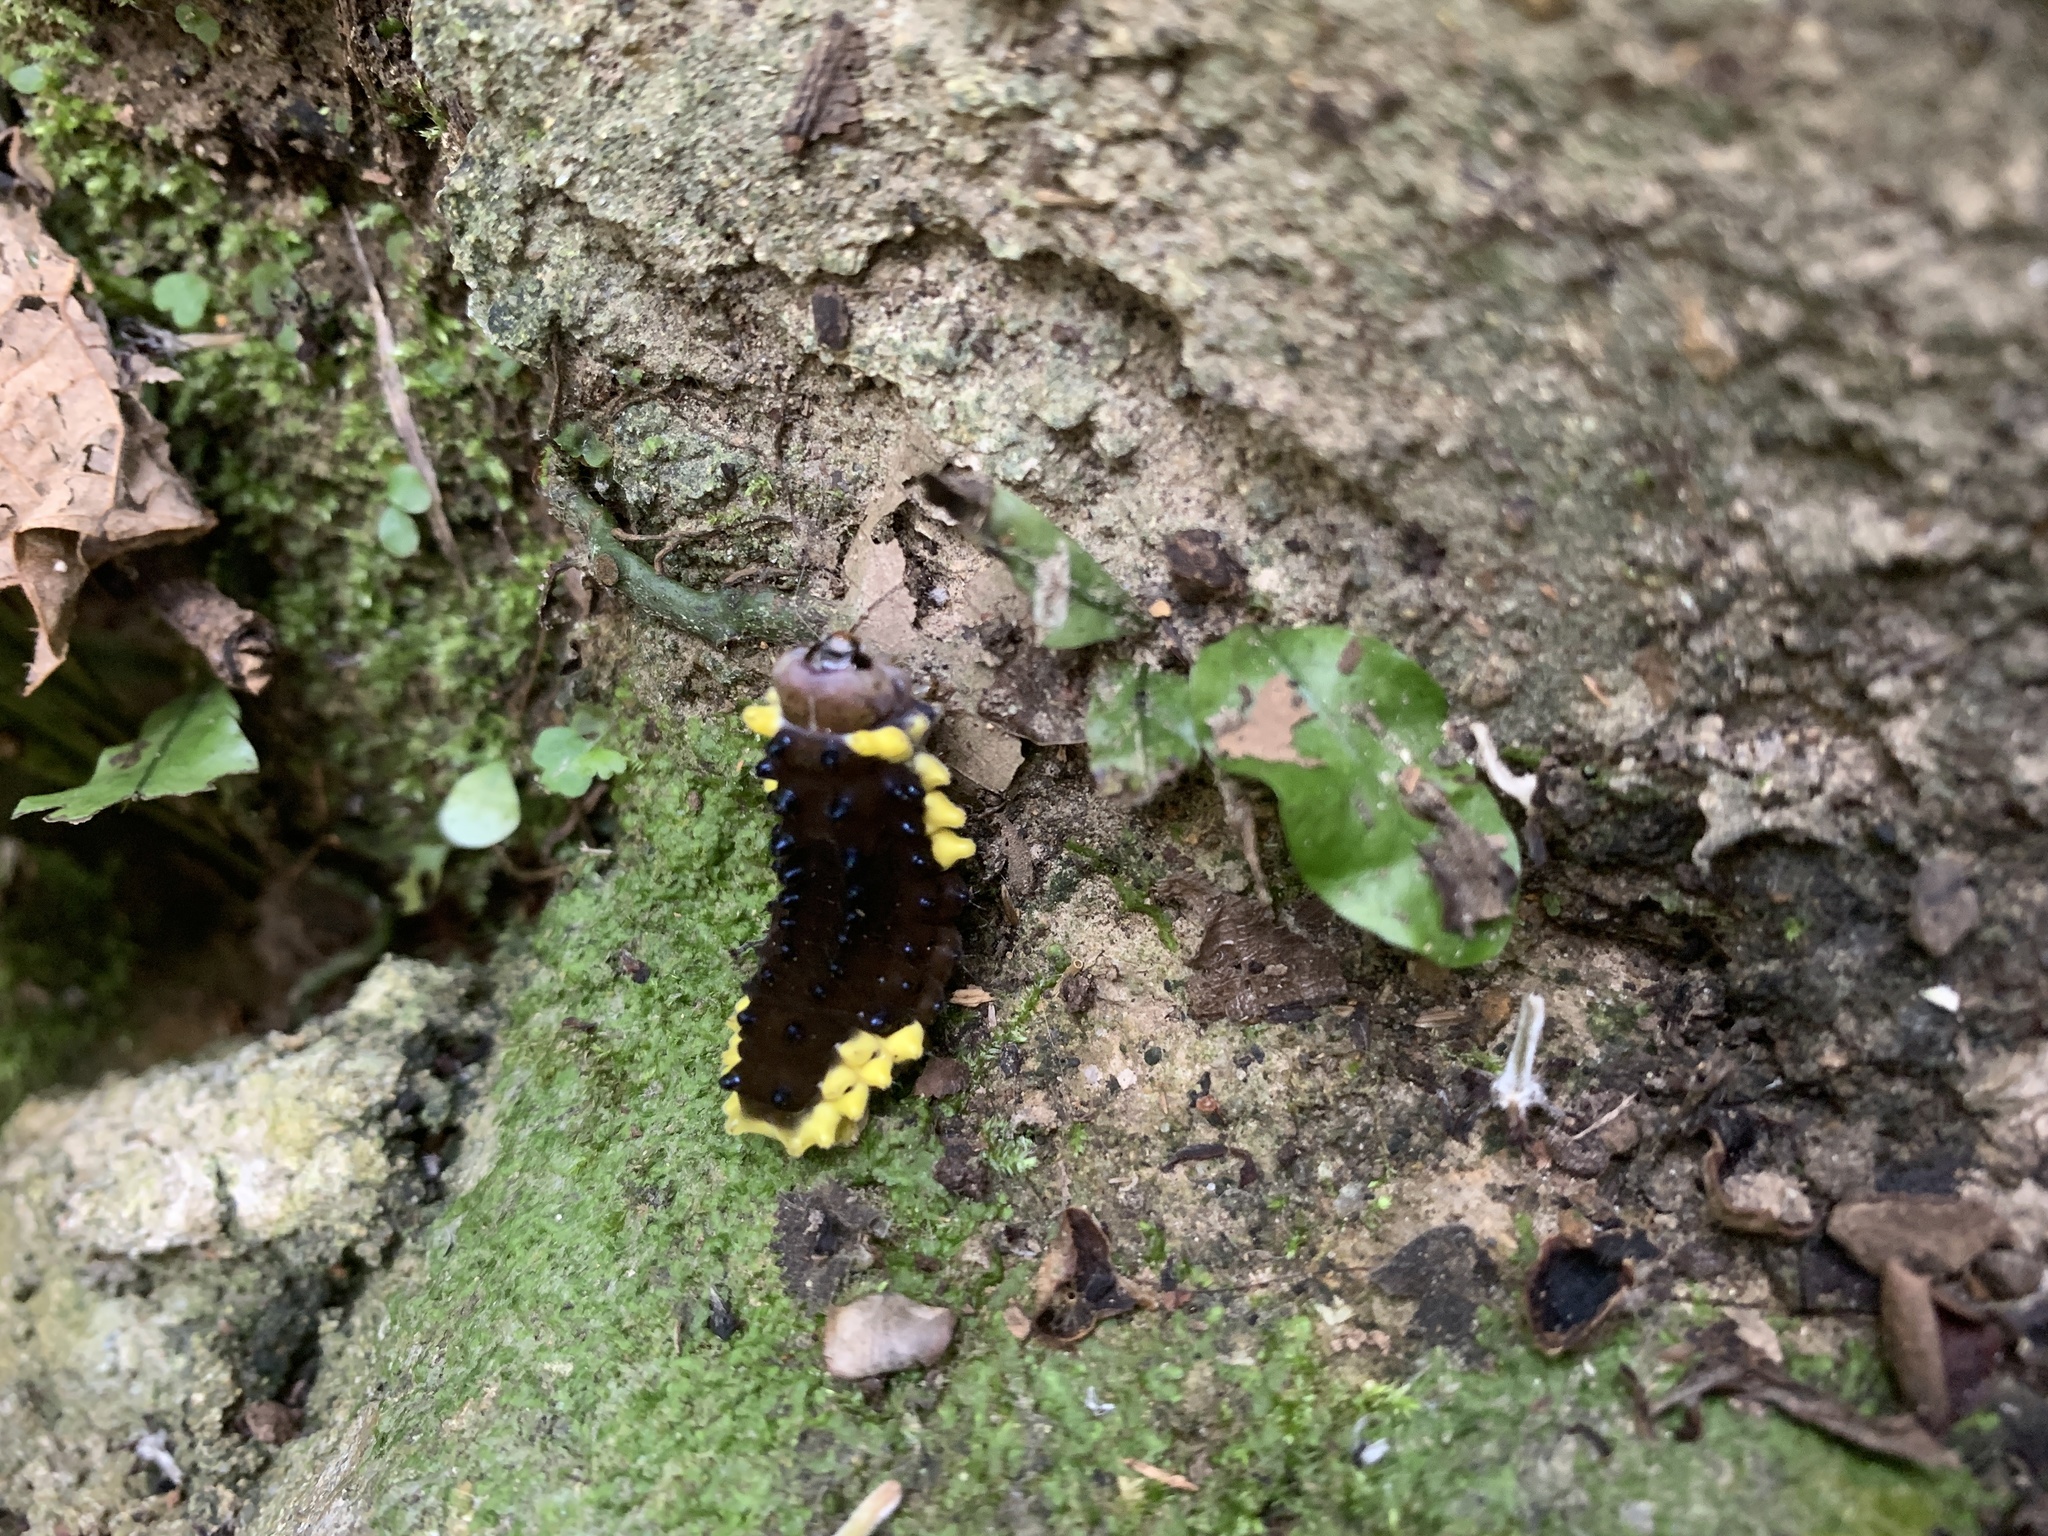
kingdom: Animalia
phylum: Arthropoda
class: Insecta
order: Lepidoptera
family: Zygaenidae
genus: Gynautocera
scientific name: Gynautocera rubriscutellata
